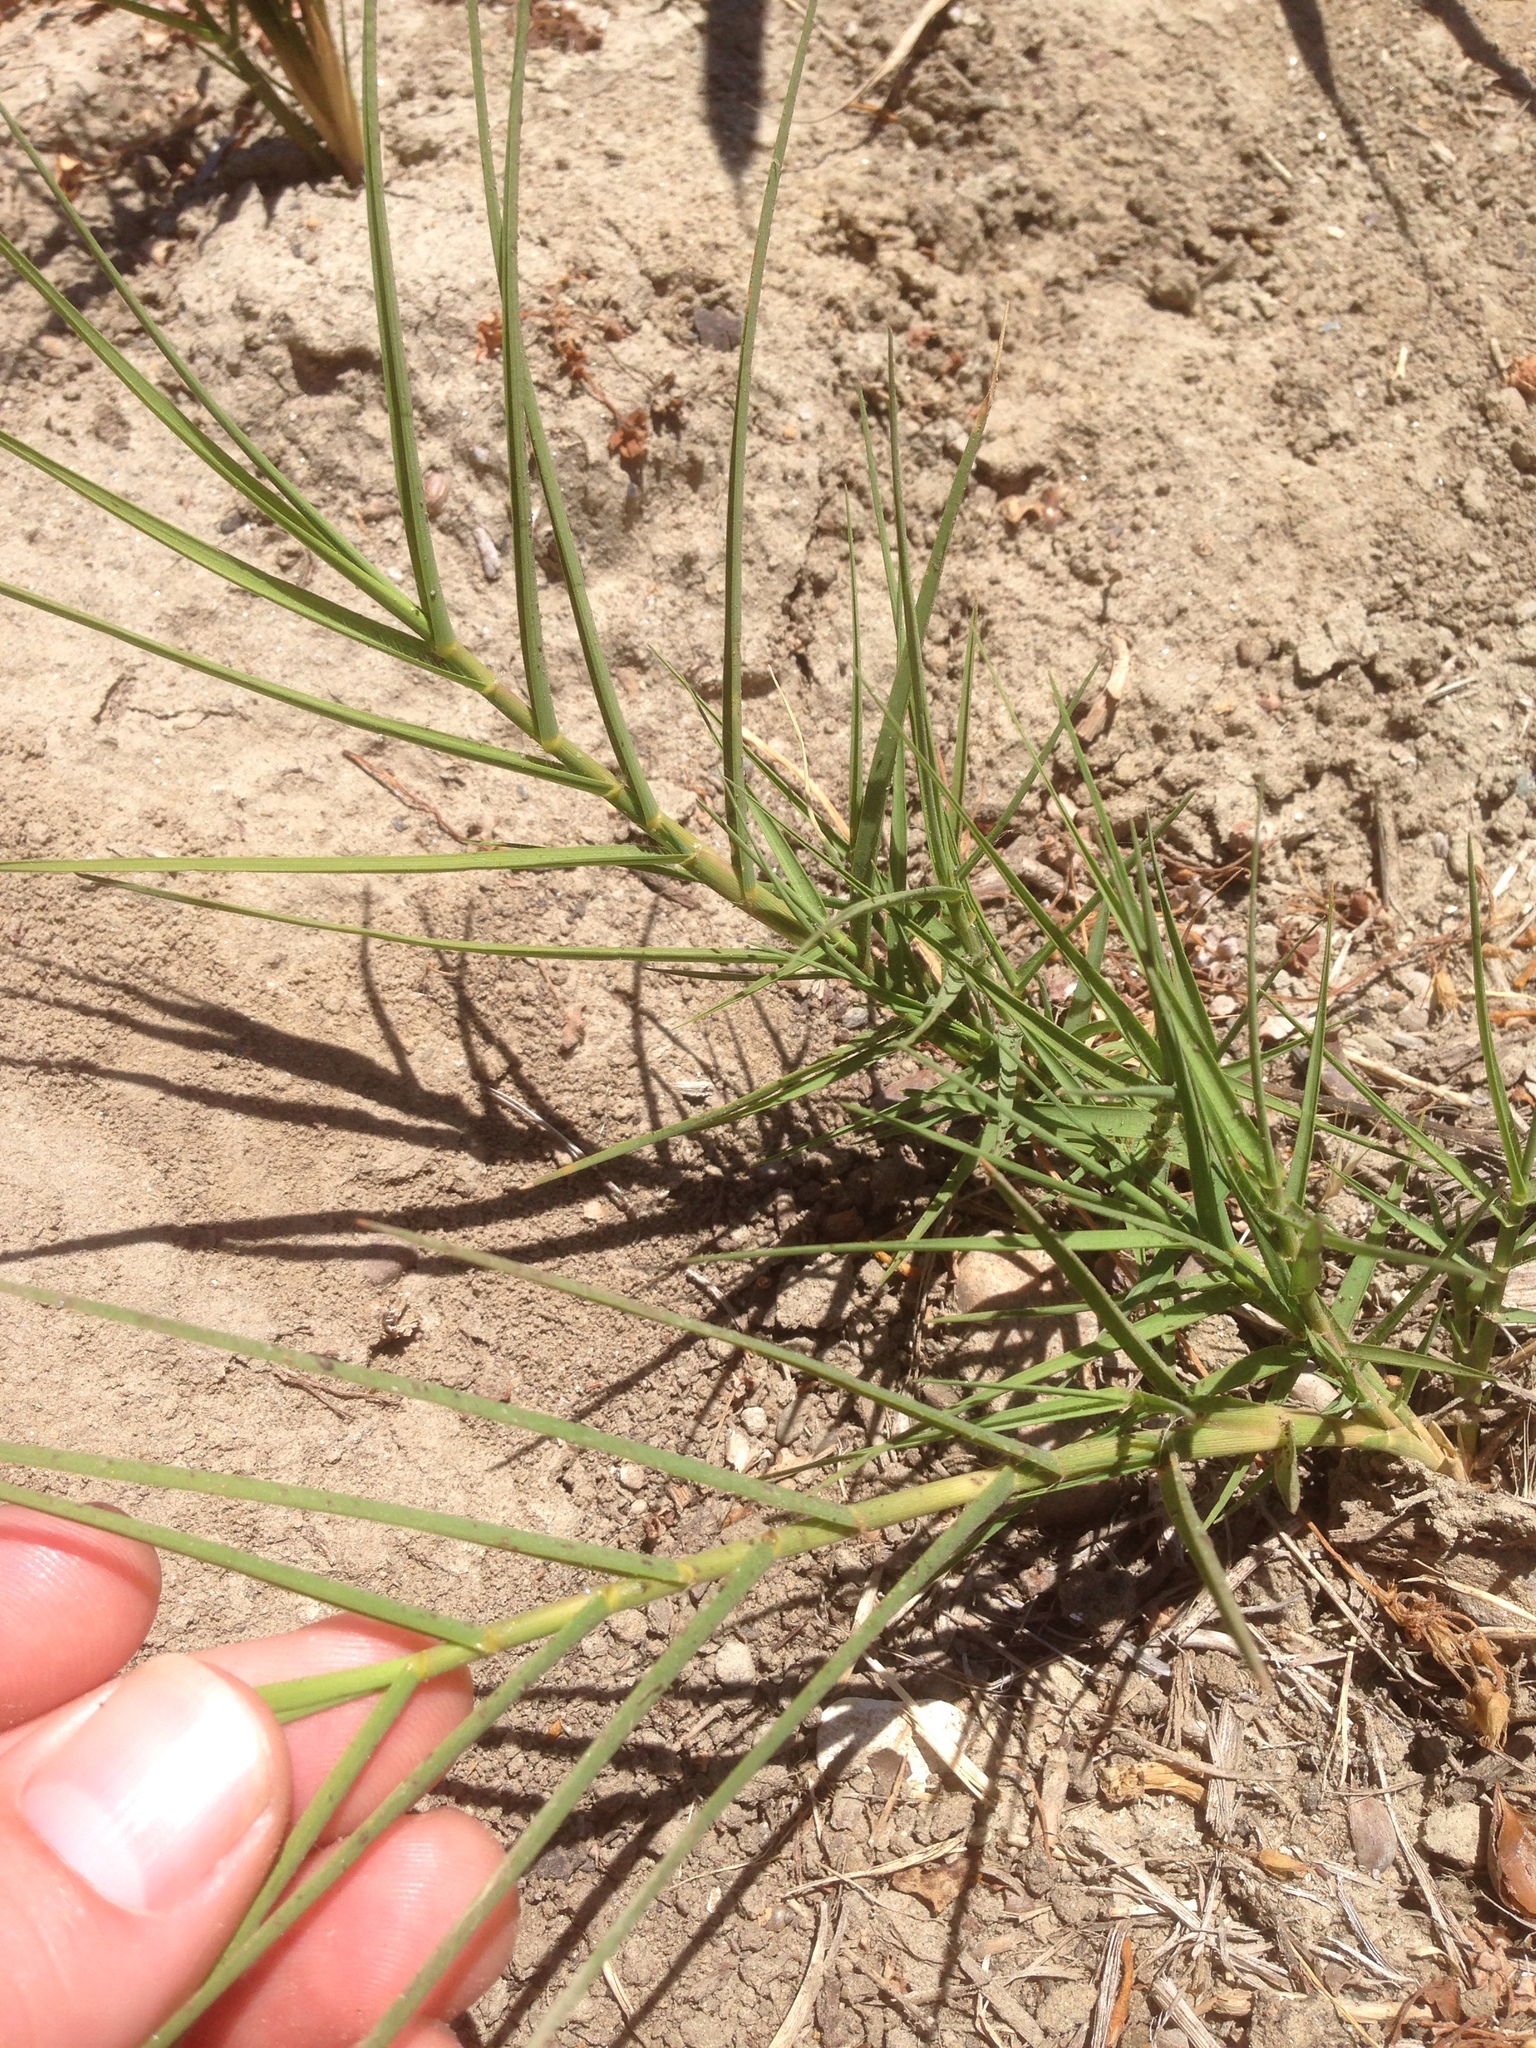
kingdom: Plantae
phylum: Tracheophyta
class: Liliopsida
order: Poales
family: Poaceae
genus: Distichlis
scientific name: Distichlis spicata
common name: Saltgrass
